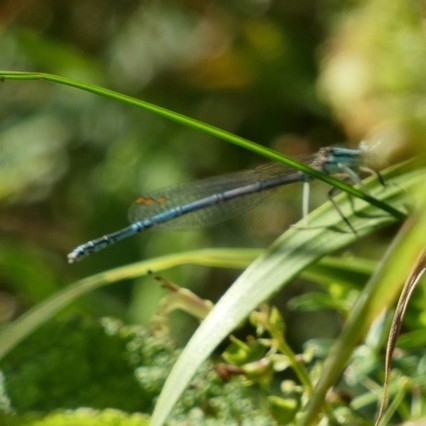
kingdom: Animalia
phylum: Arthropoda
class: Insecta
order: Odonata
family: Platycnemididae
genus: Platycnemis
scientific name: Platycnemis pennipes
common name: White-legged damselfly
